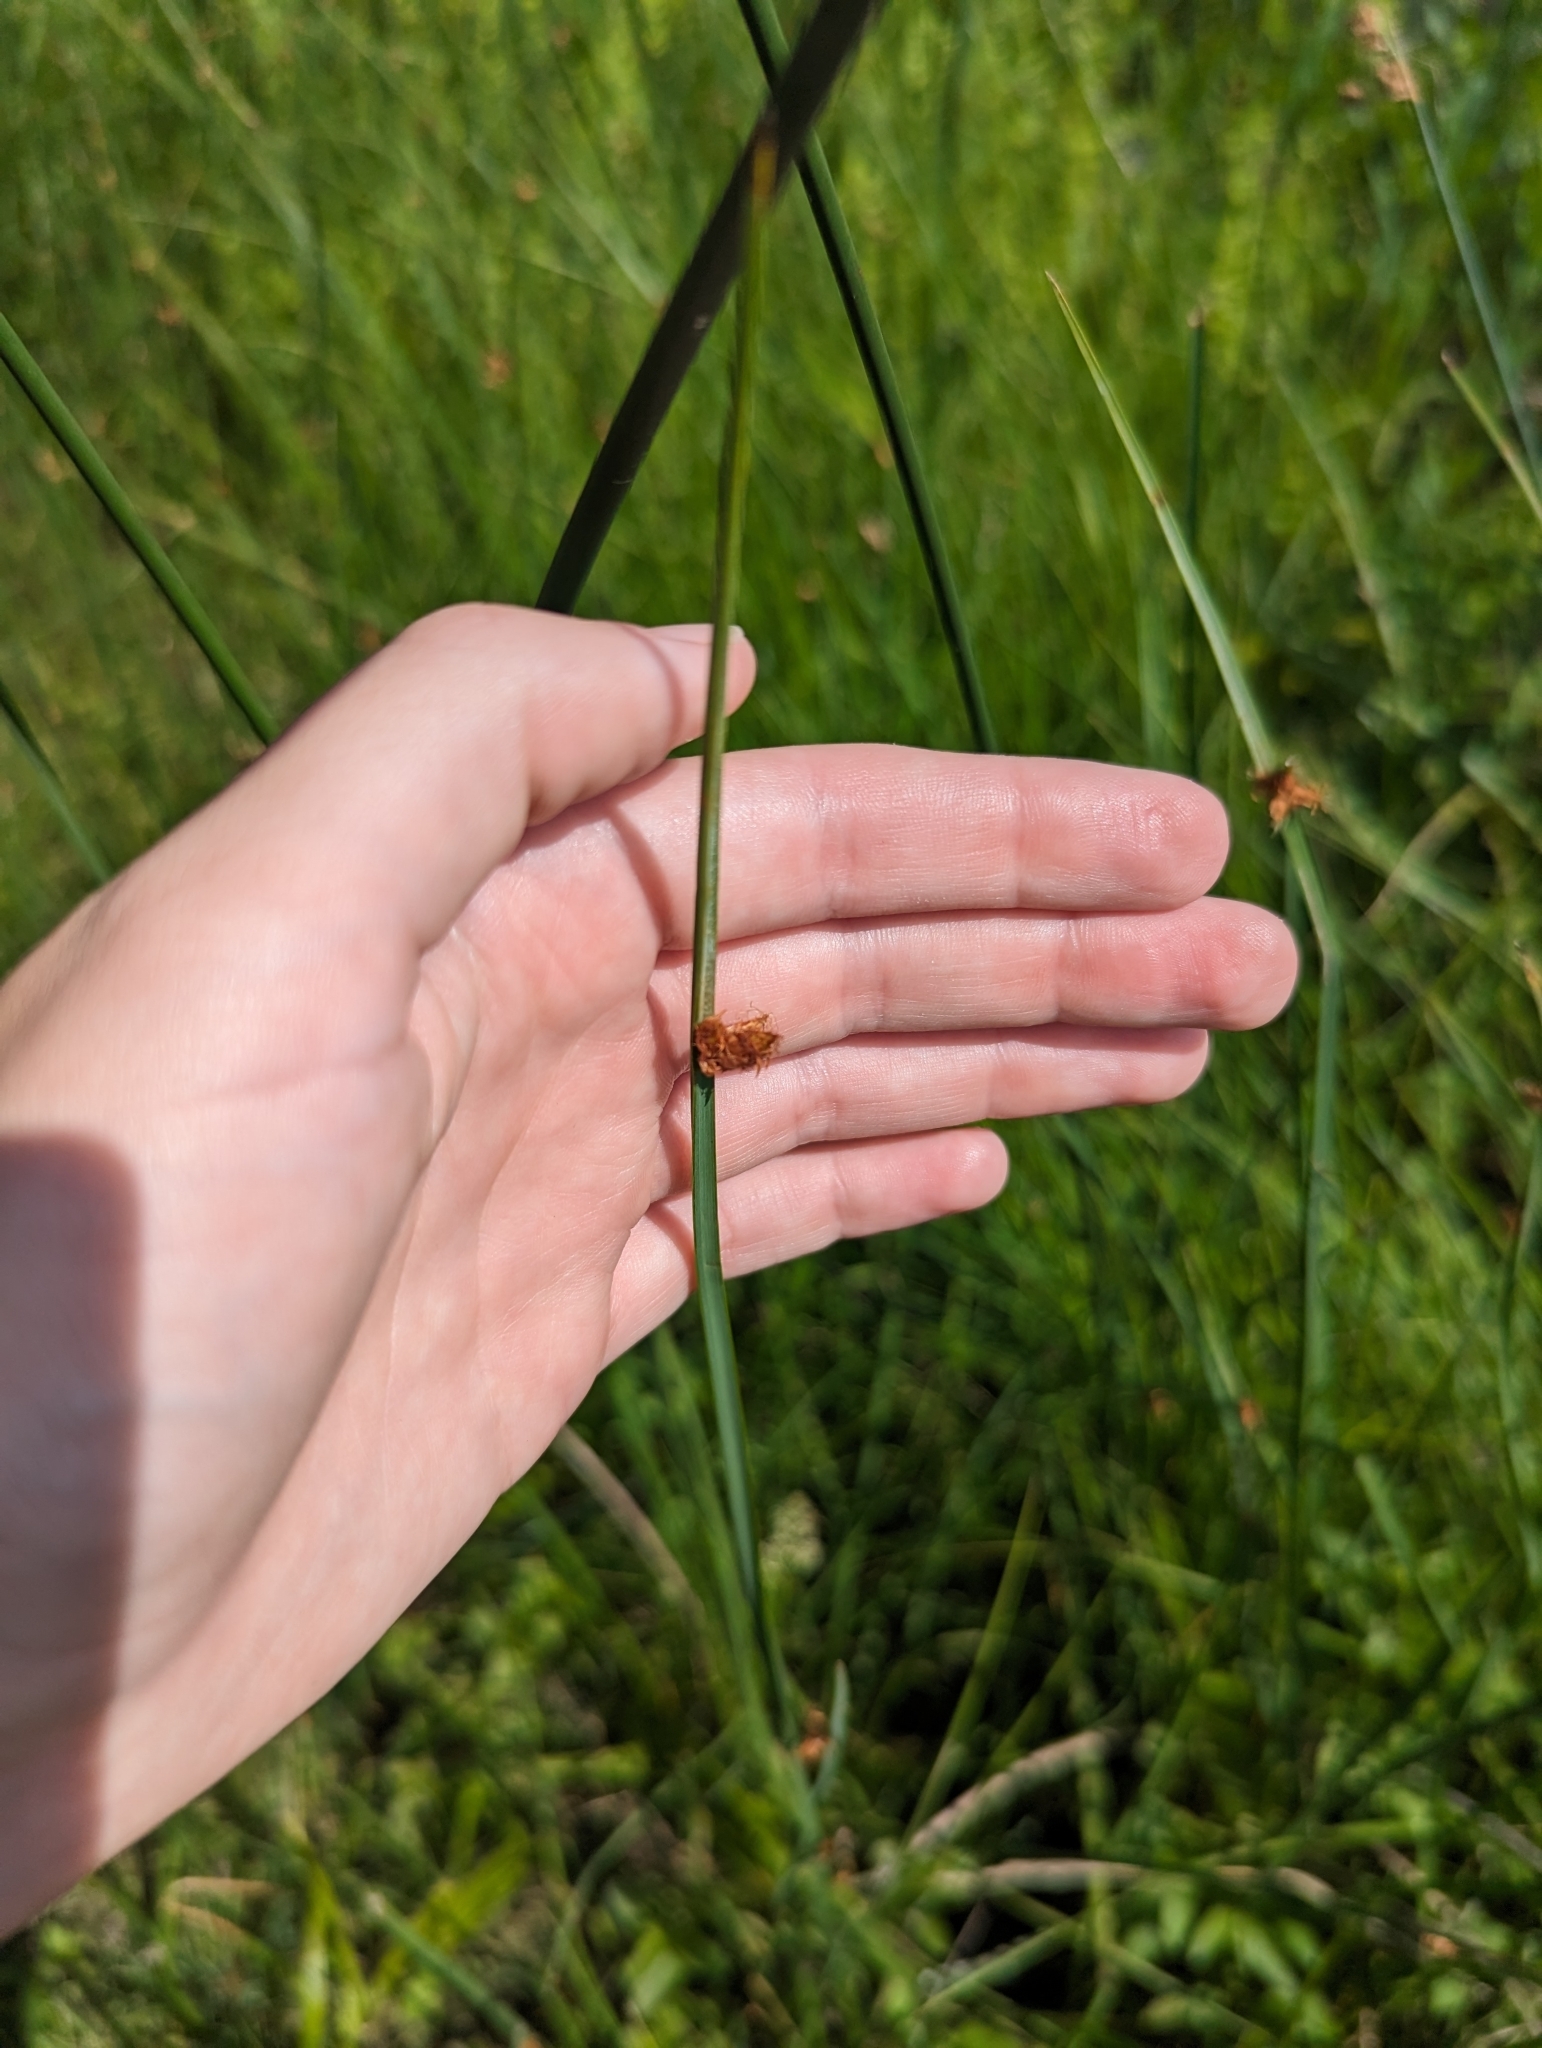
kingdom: Plantae
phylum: Tracheophyta
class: Liliopsida
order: Poales
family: Cyperaceae
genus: Schoenoplectus
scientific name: Schoenoplectus pungens
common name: Sharp club-rush
